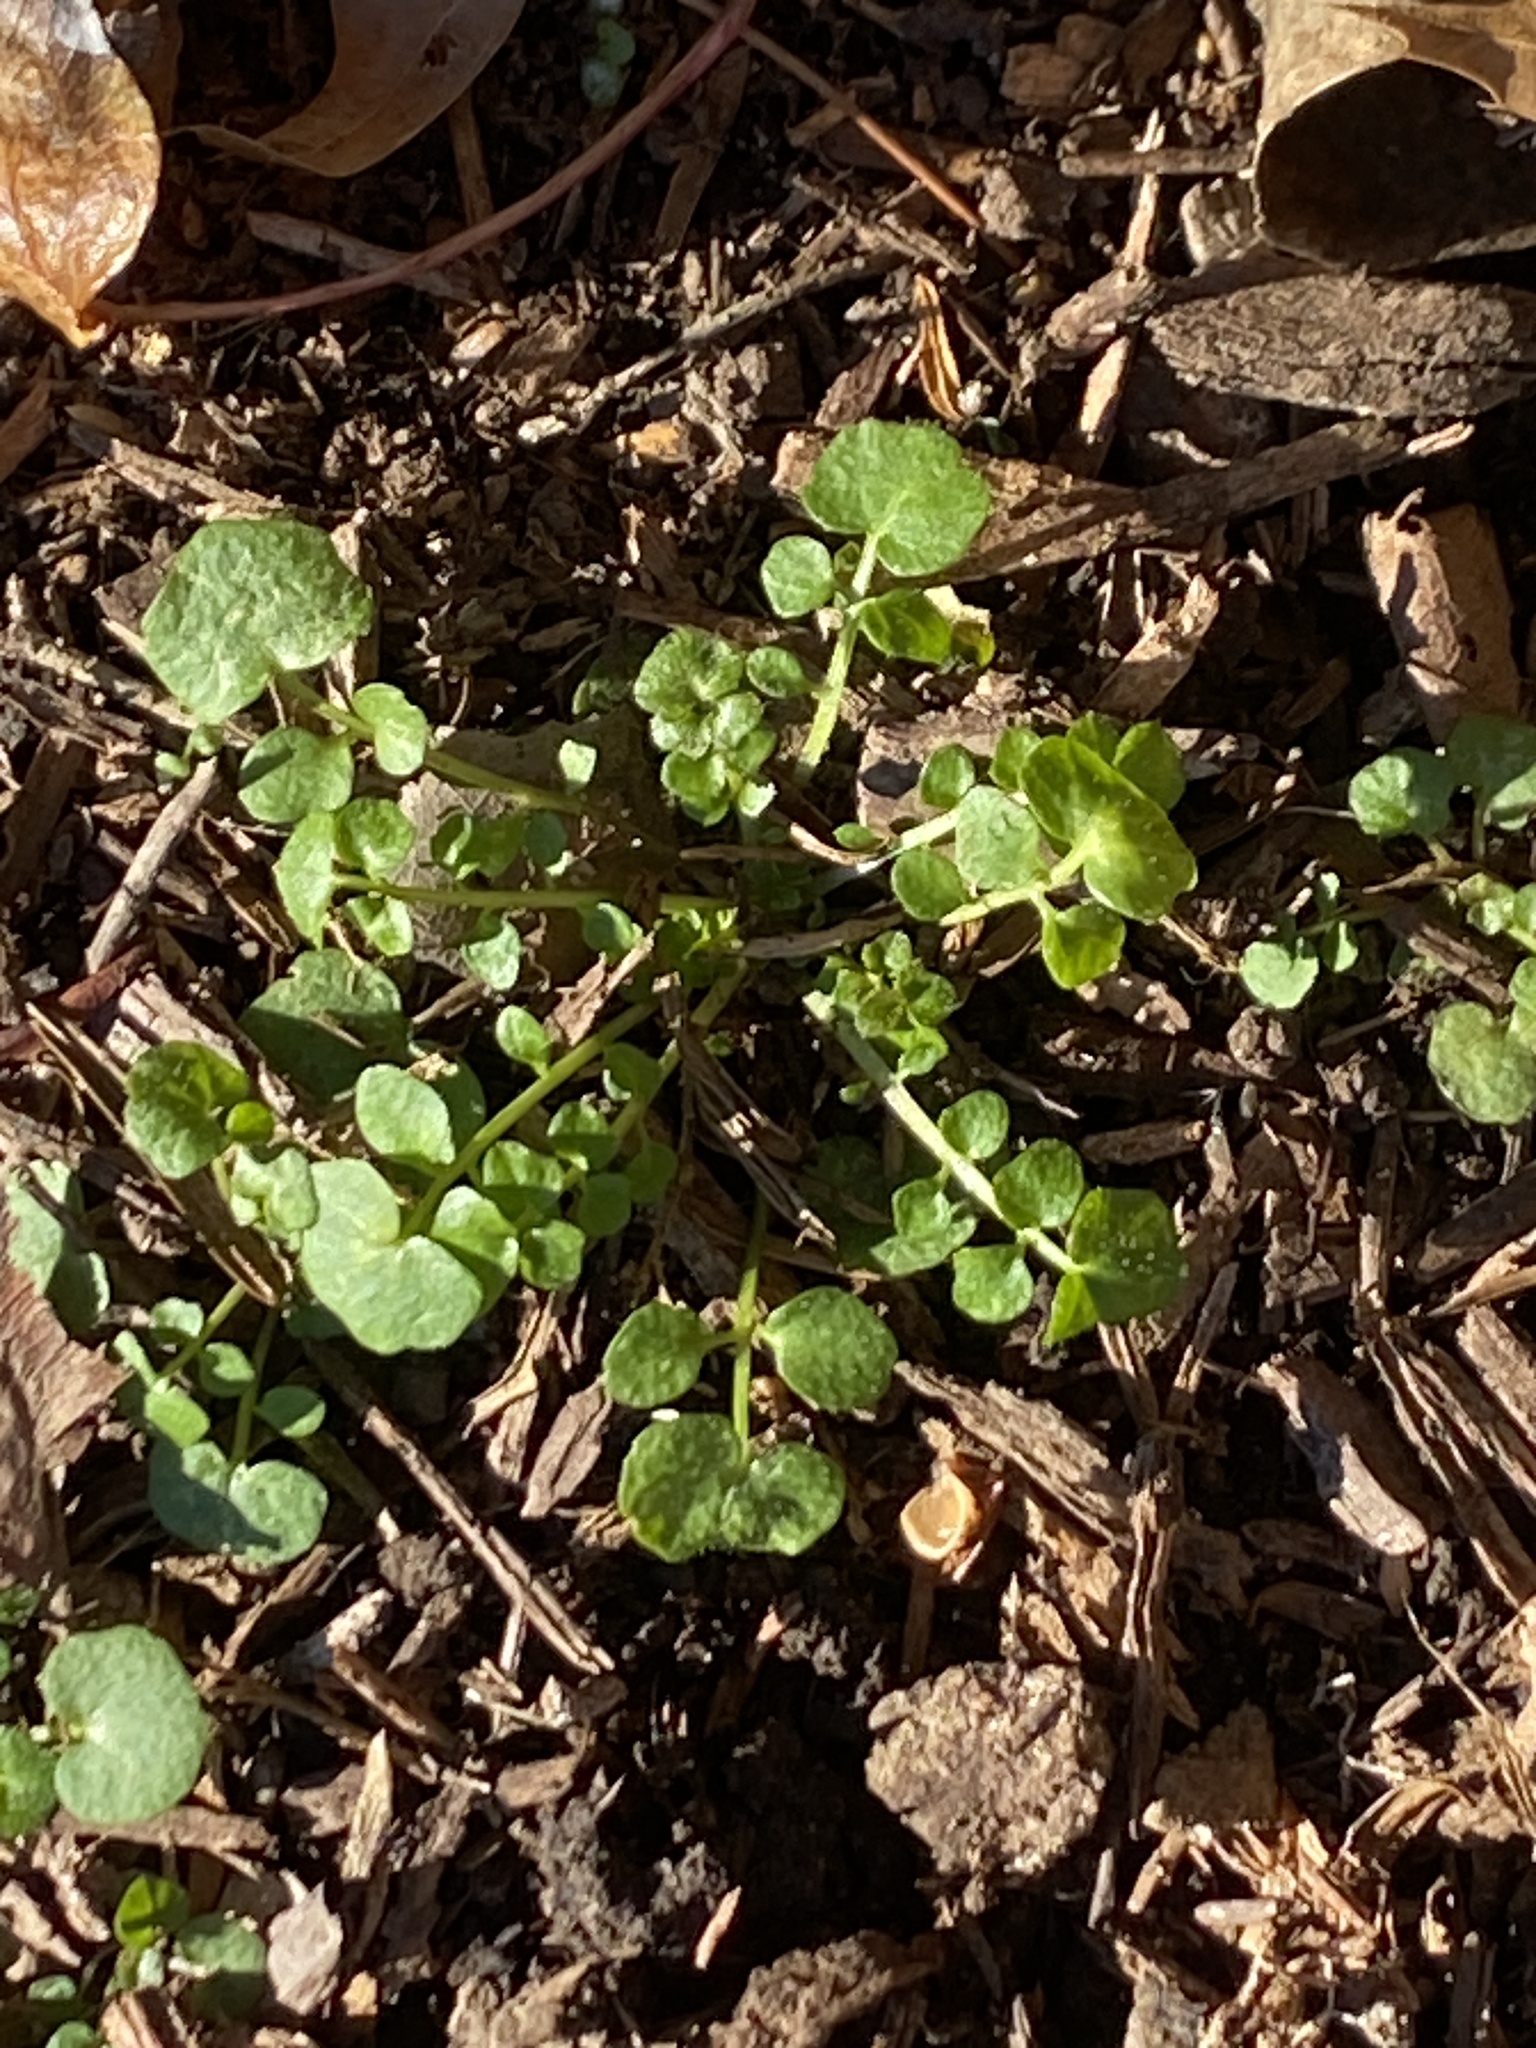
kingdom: Plantae
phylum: Tracheophyta
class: Magnoliopsida
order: Brassicales
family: Brassicaceae
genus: Cardamine
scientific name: Cardamine hirsuta
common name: Hairy bittercress
